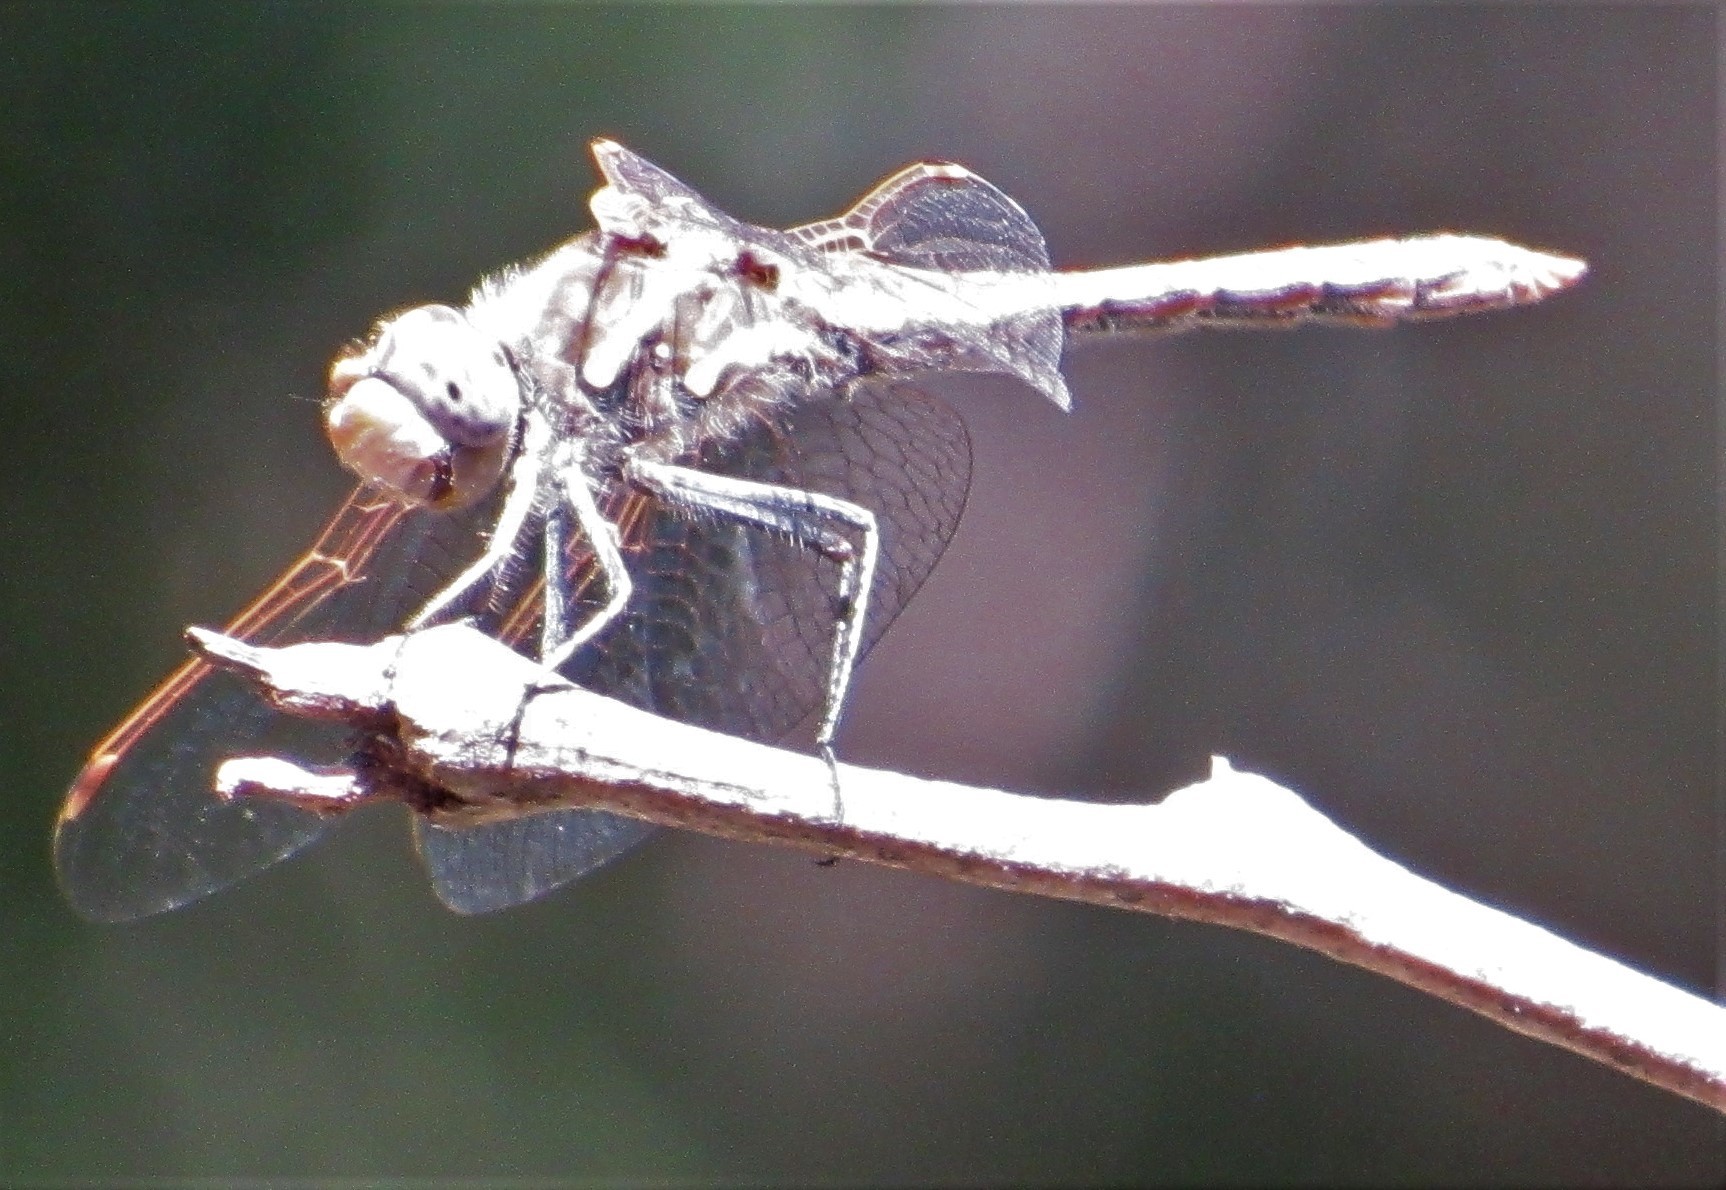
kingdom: Animalia
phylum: Arthropoda
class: Insecta
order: Odonata
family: Libellulidae
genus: Sympetrum
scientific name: Sympetrum corruptum
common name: Variegated meadowhawk
